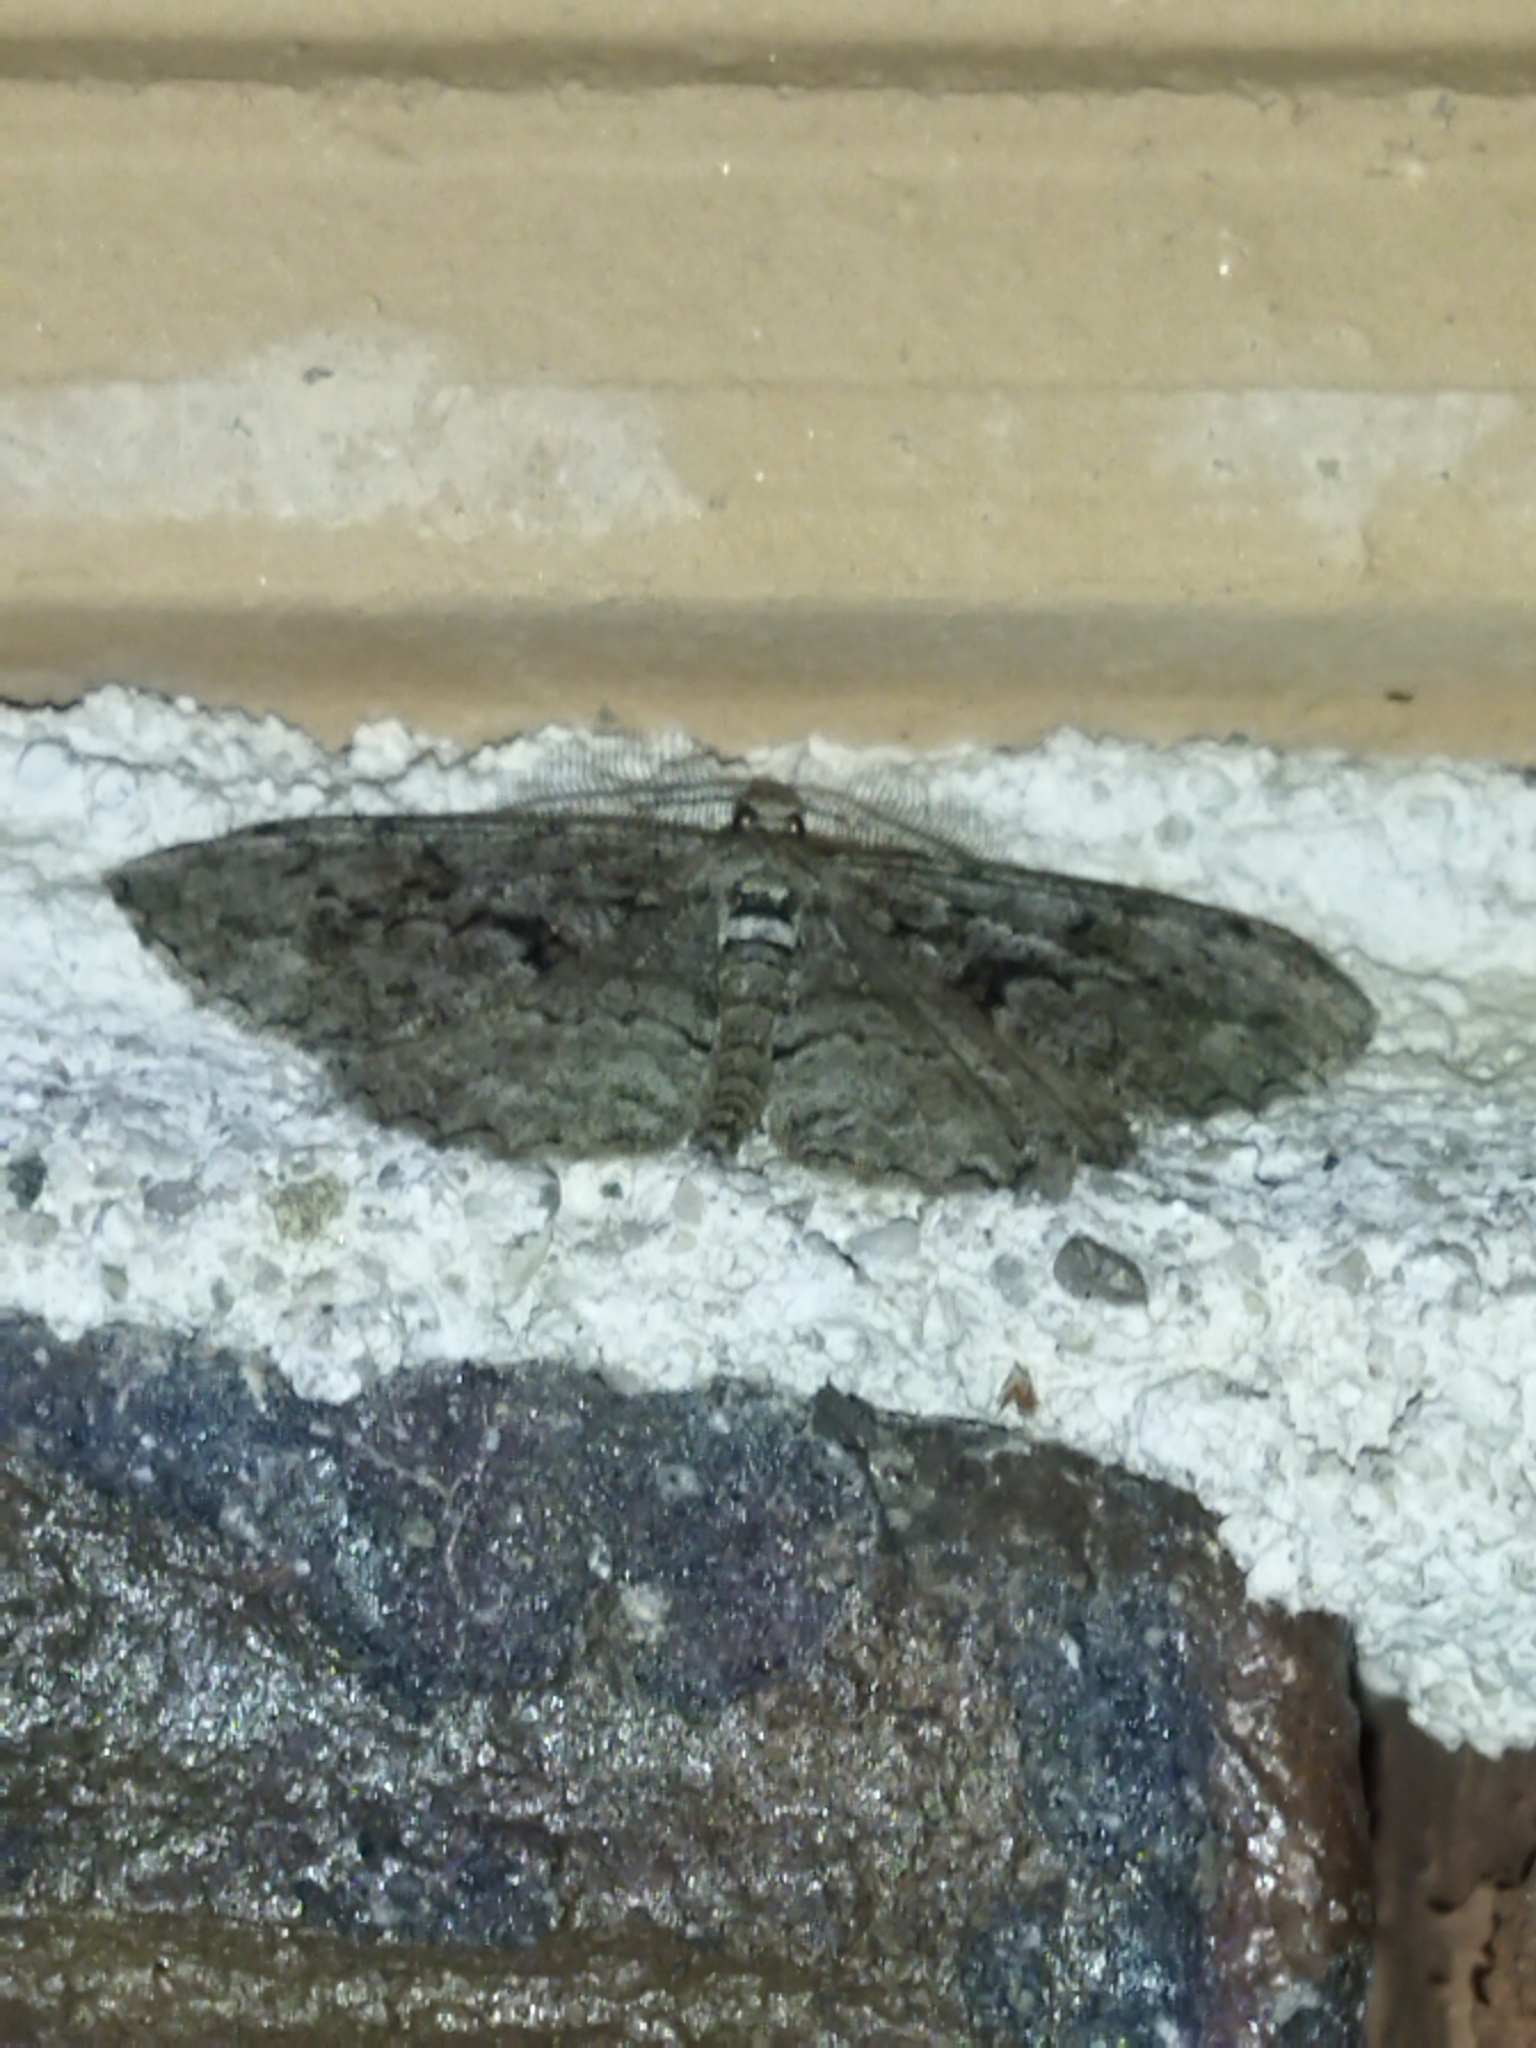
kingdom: Animalia
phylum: Arthropoda
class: Insecta
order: Lepidoptera
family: Geometridae
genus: Peribatodes
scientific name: Peribatodes secundaria
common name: Feathered beauty
